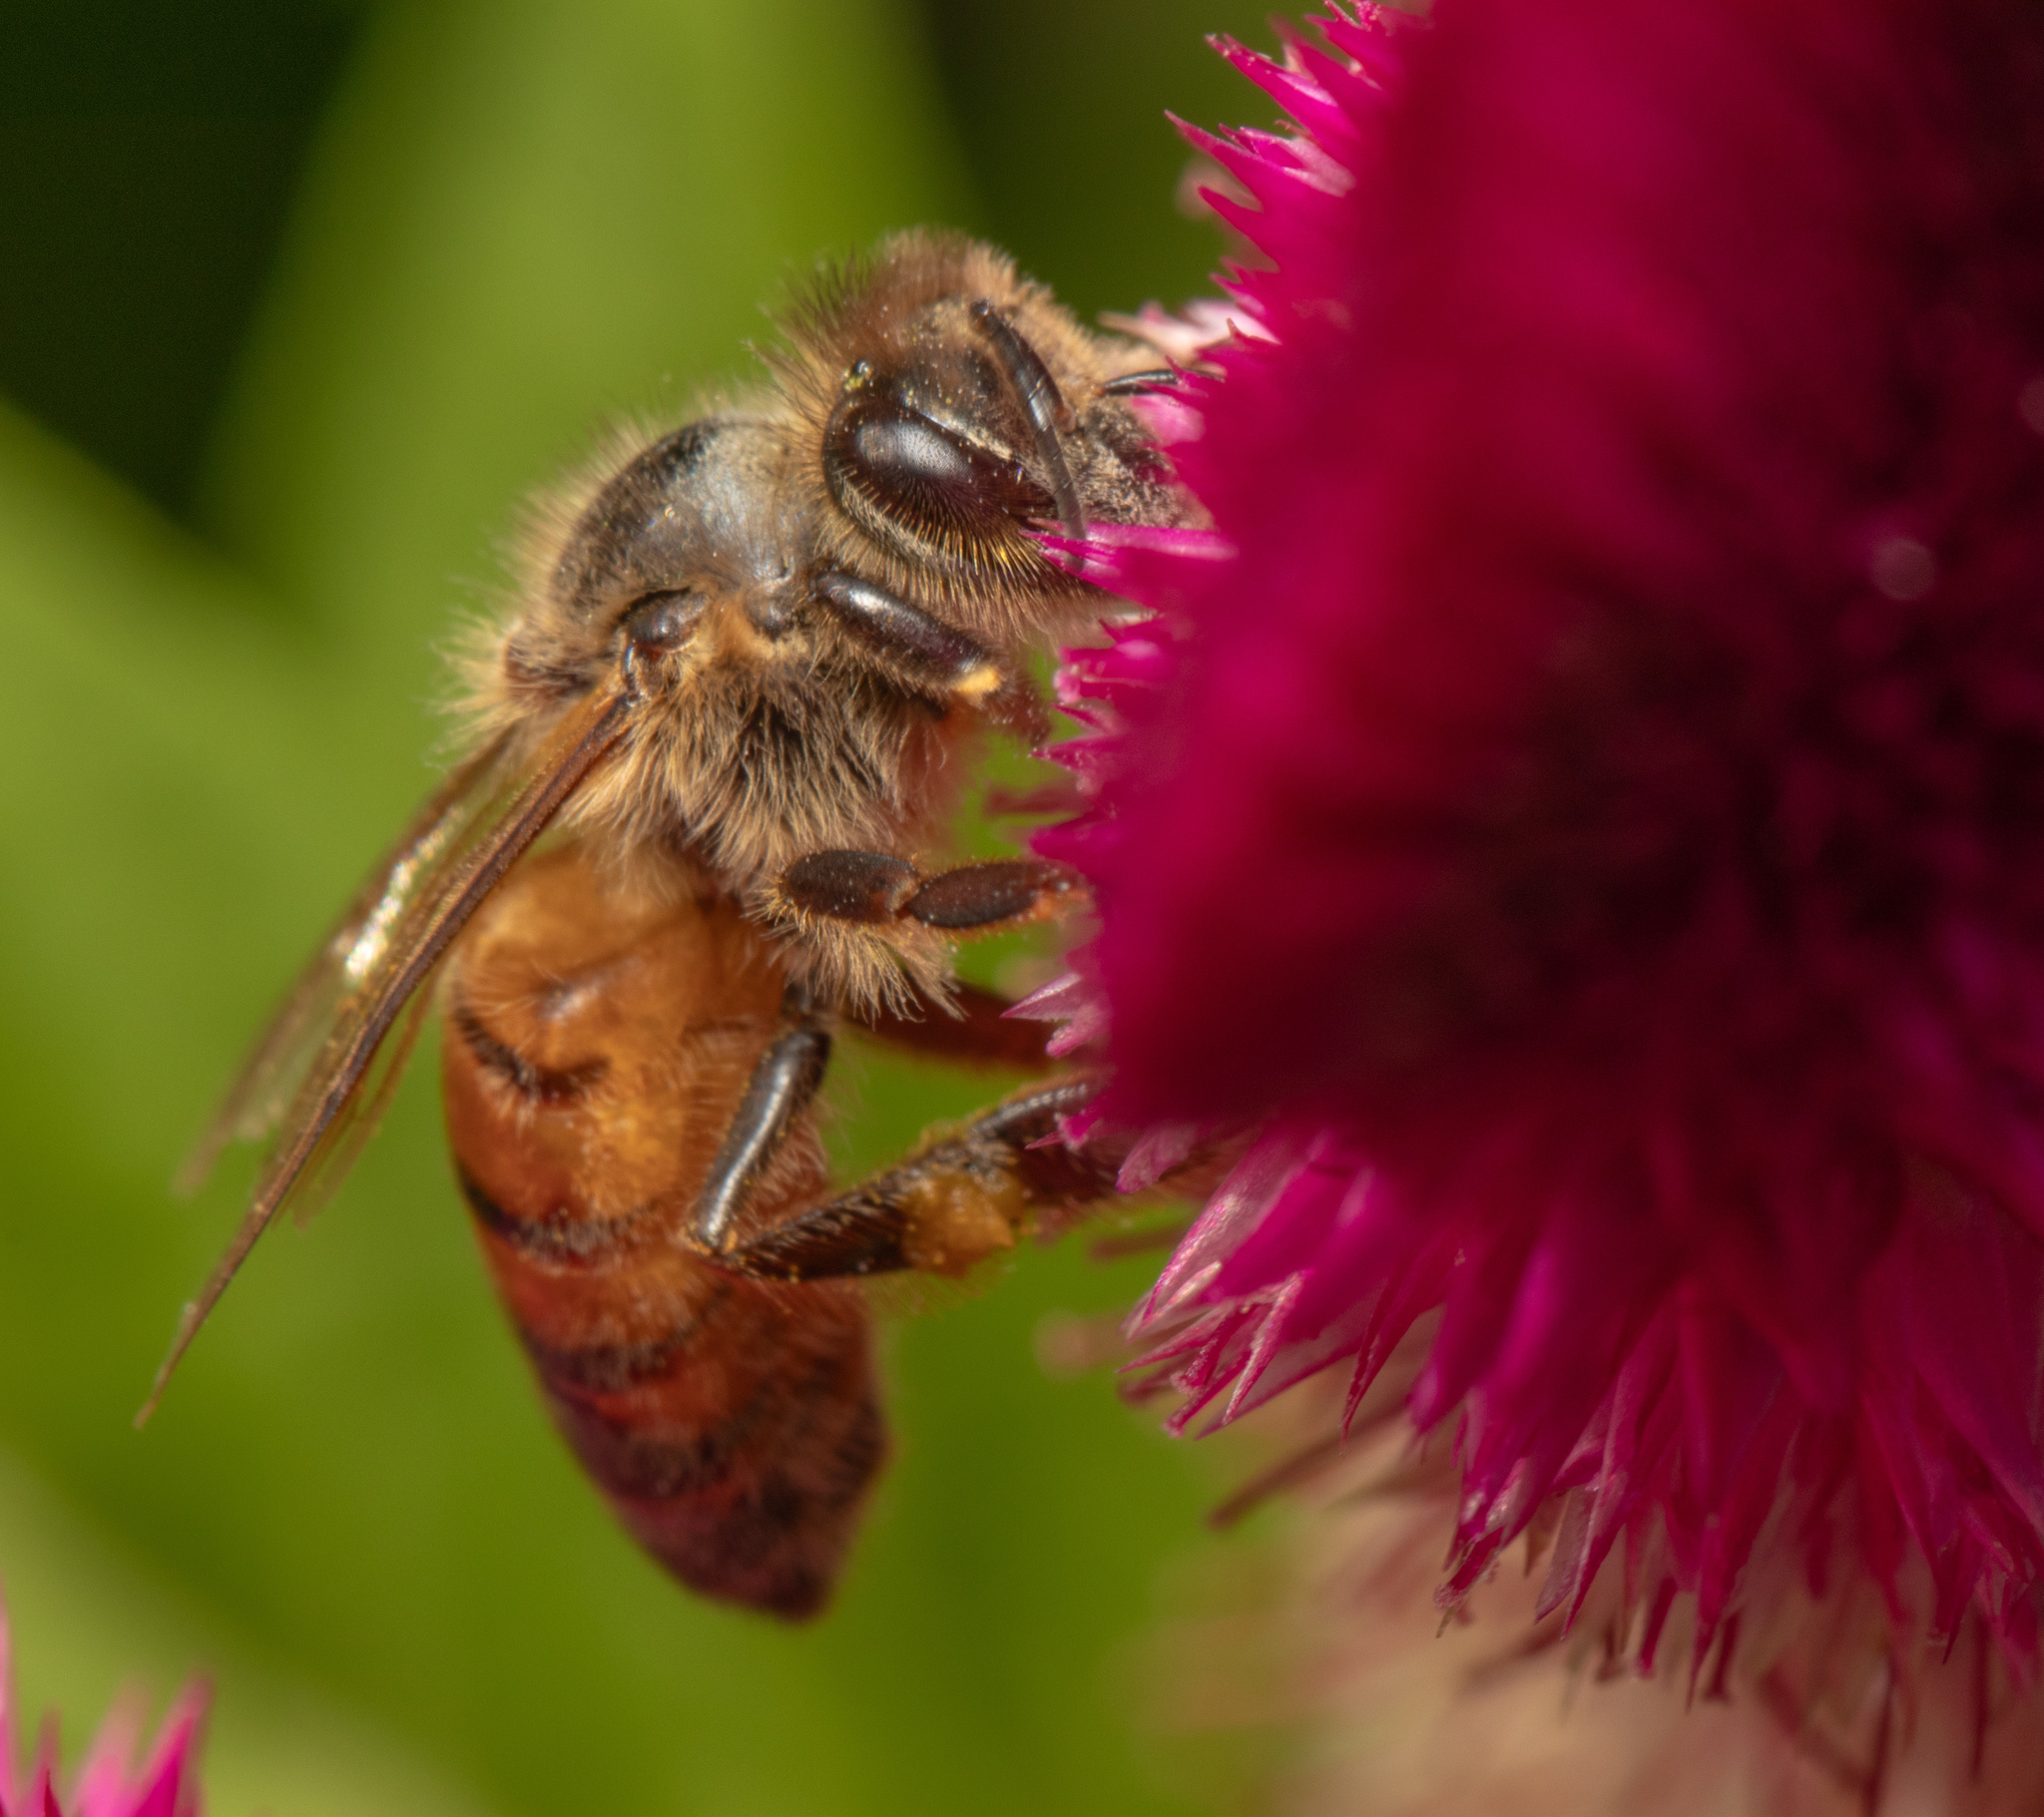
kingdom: Animalia
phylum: Arthropoda
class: Insecta
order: Hymenoptera
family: Apidae
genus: Apis
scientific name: Apis mellifera
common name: Honey bee
